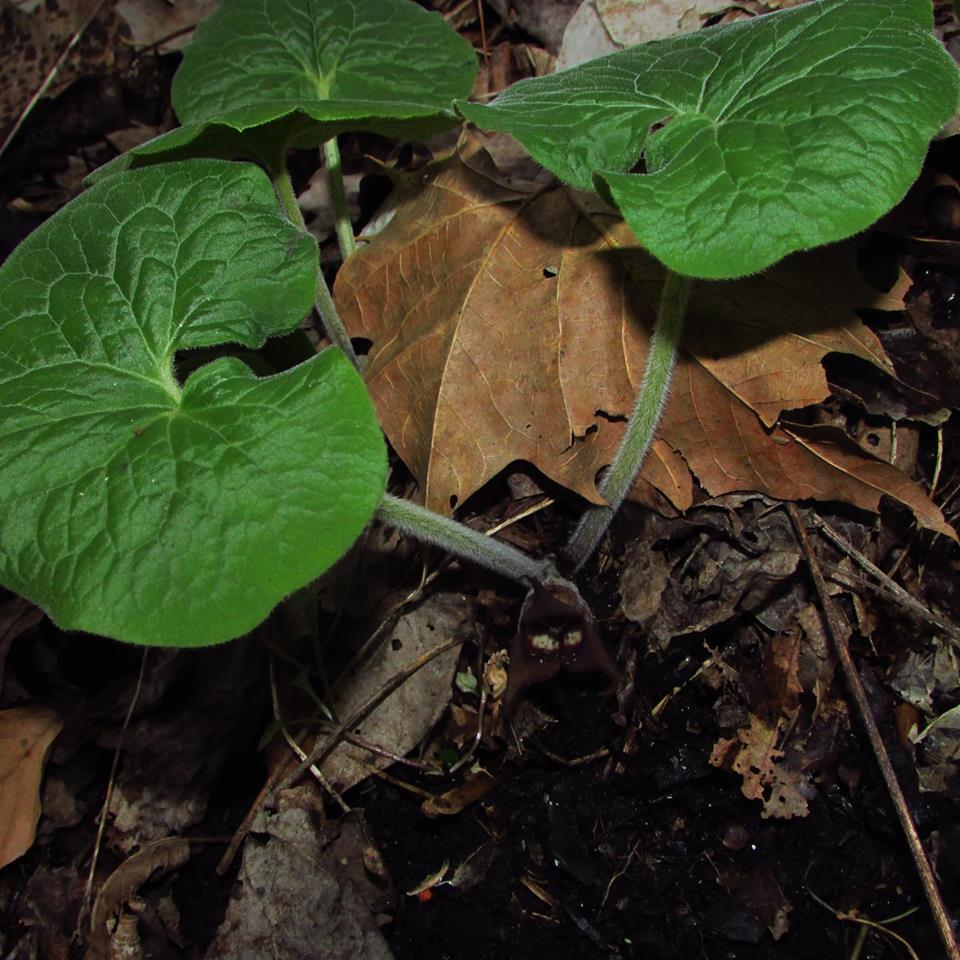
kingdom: Plantae
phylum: Tracheophyta
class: Magnoliopsida
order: Piperales
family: Aristolochiaceae
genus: Asarum
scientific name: Asarum canadense
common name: Wild ginger
